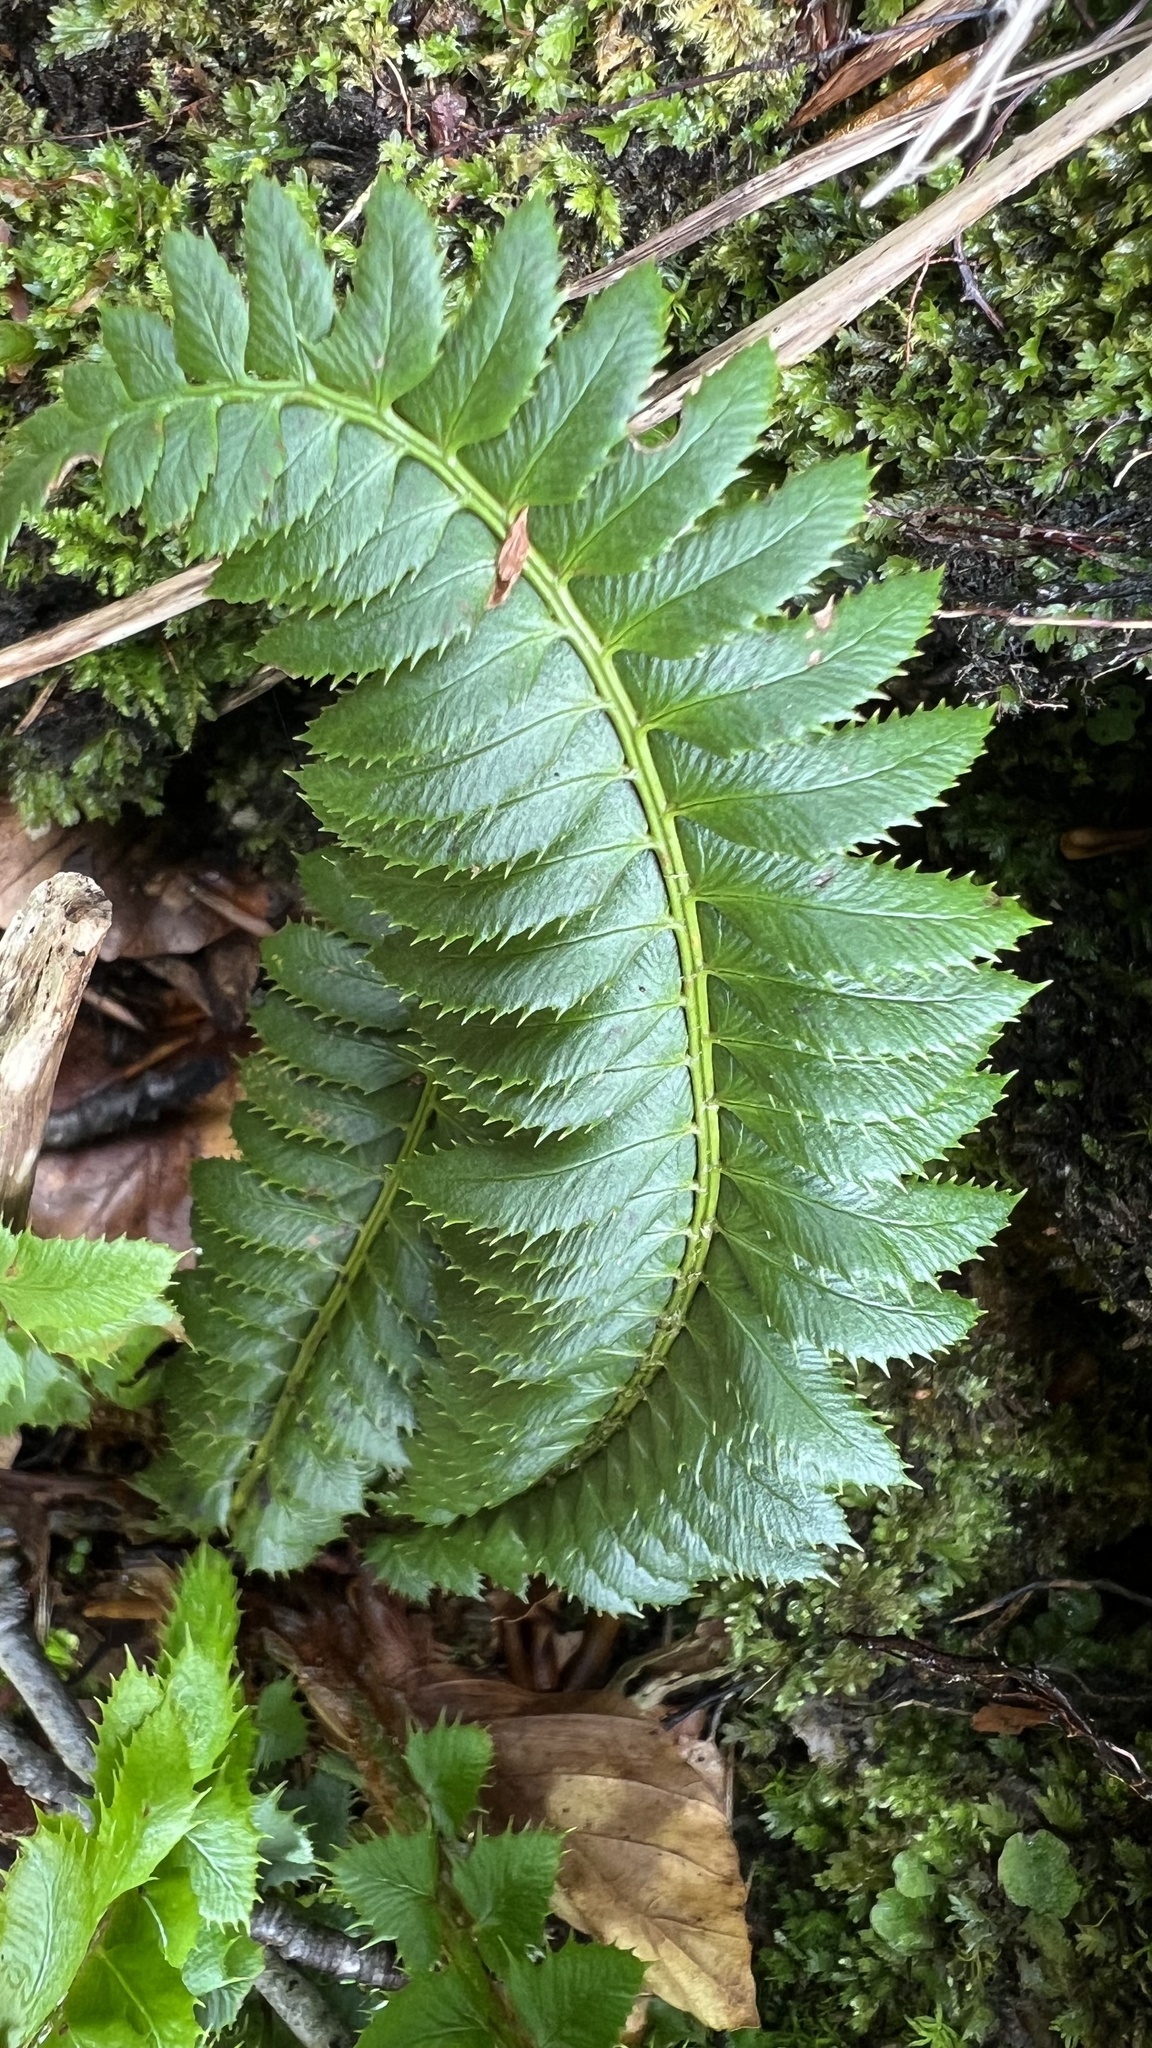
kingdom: Plantae
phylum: Tracheophyta
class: Polypodiopsida
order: Polypodiales
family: Dryopteridaceae
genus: Polystichum
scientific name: Polystichum lonchitis
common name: Holly fern
